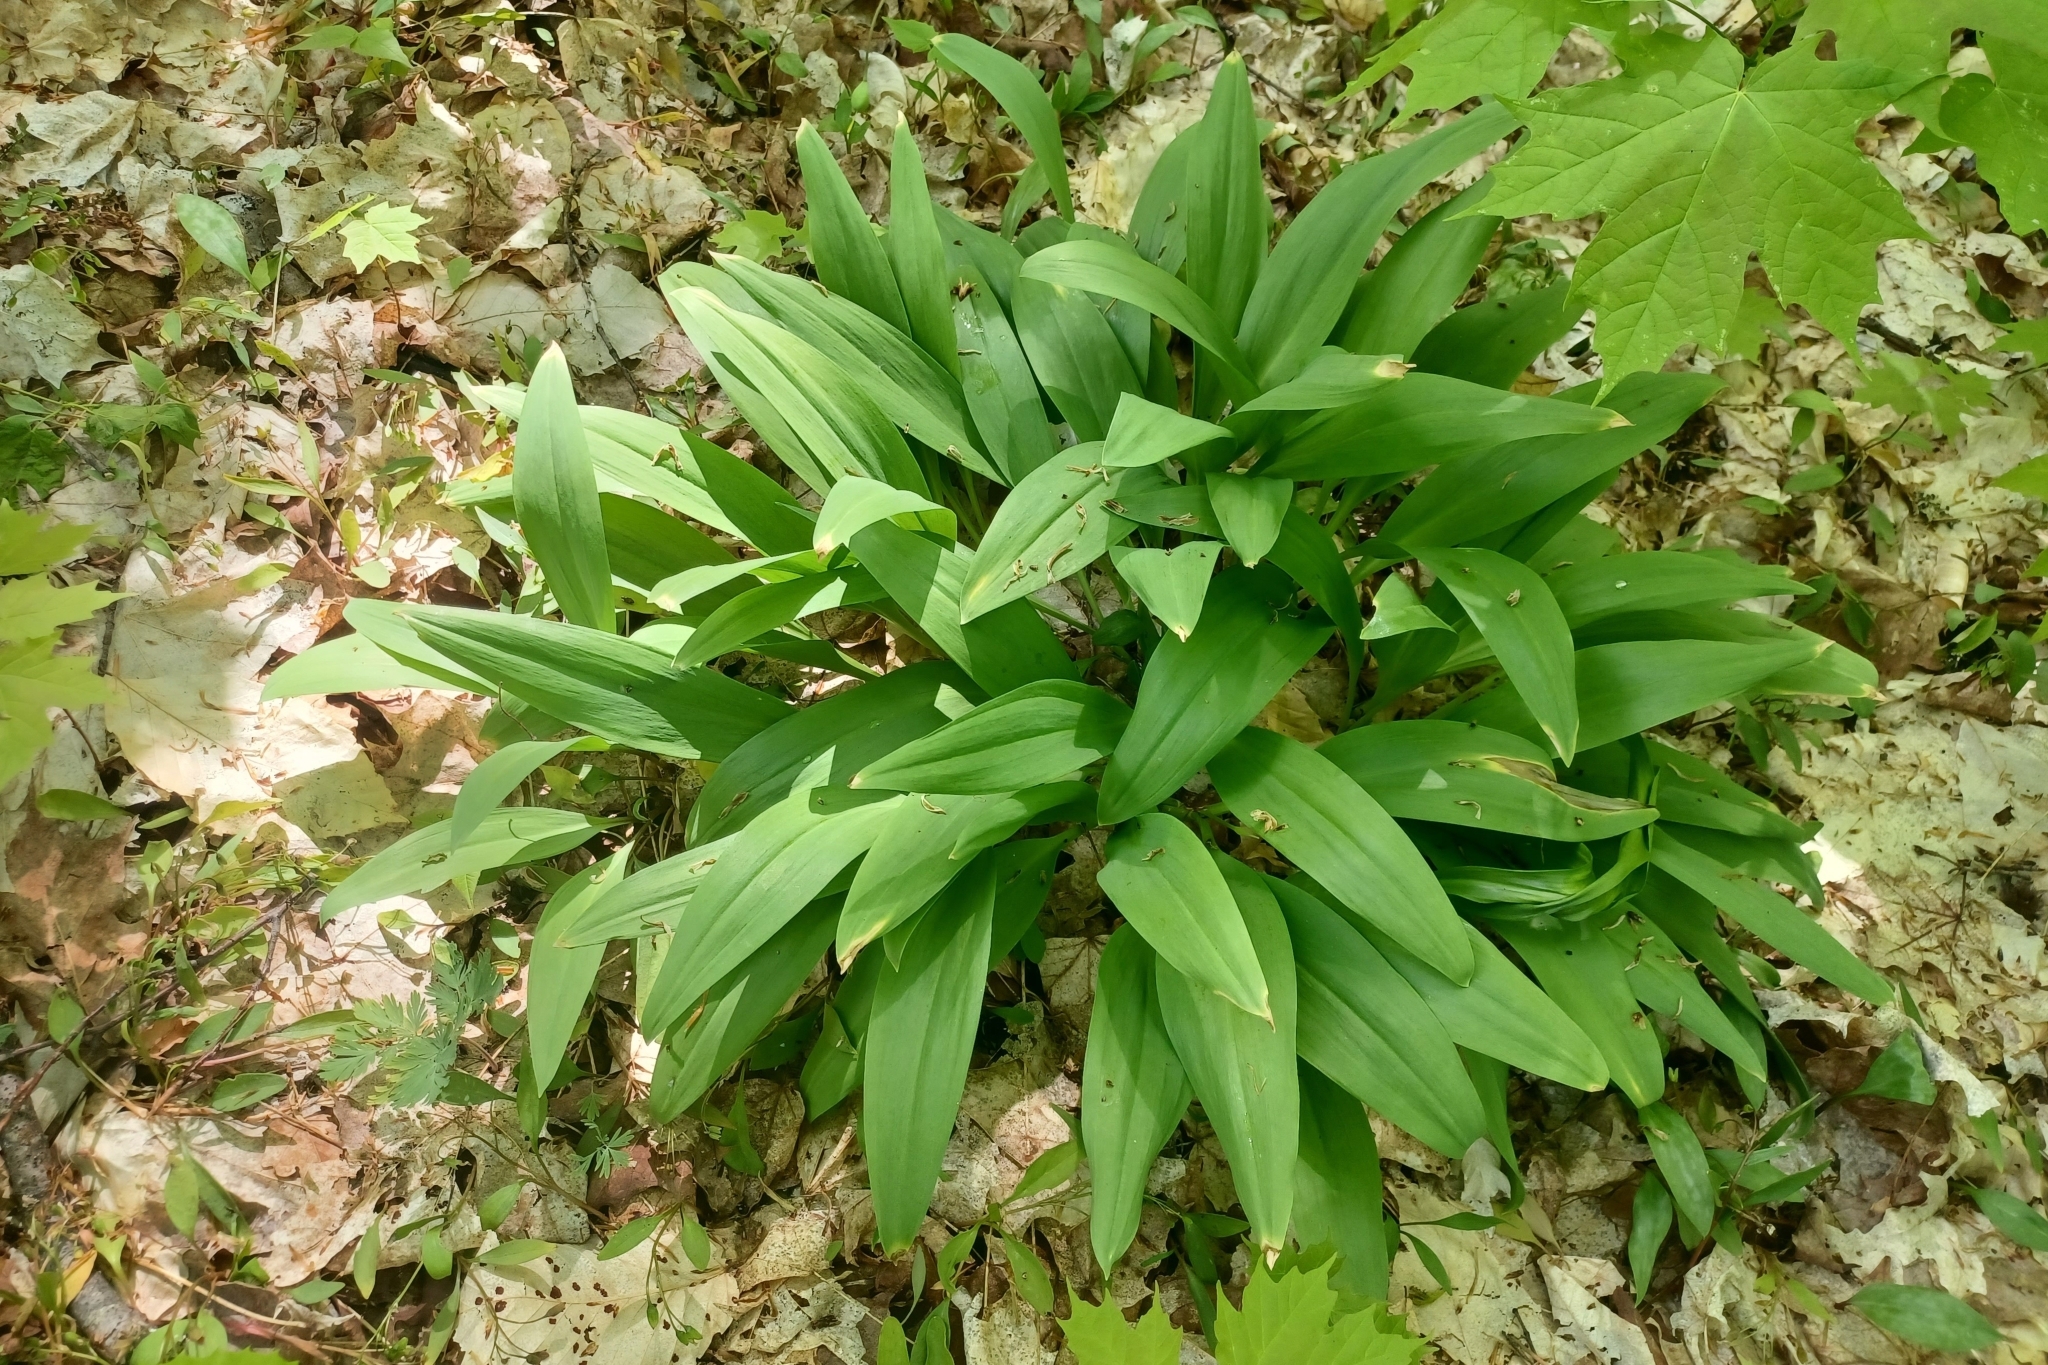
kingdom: Plantae
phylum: Tracheophyta
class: Liliopsida
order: Asparagales
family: Amaryllidaceae
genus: Allium
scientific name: Allium tricoccum
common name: Ramp
